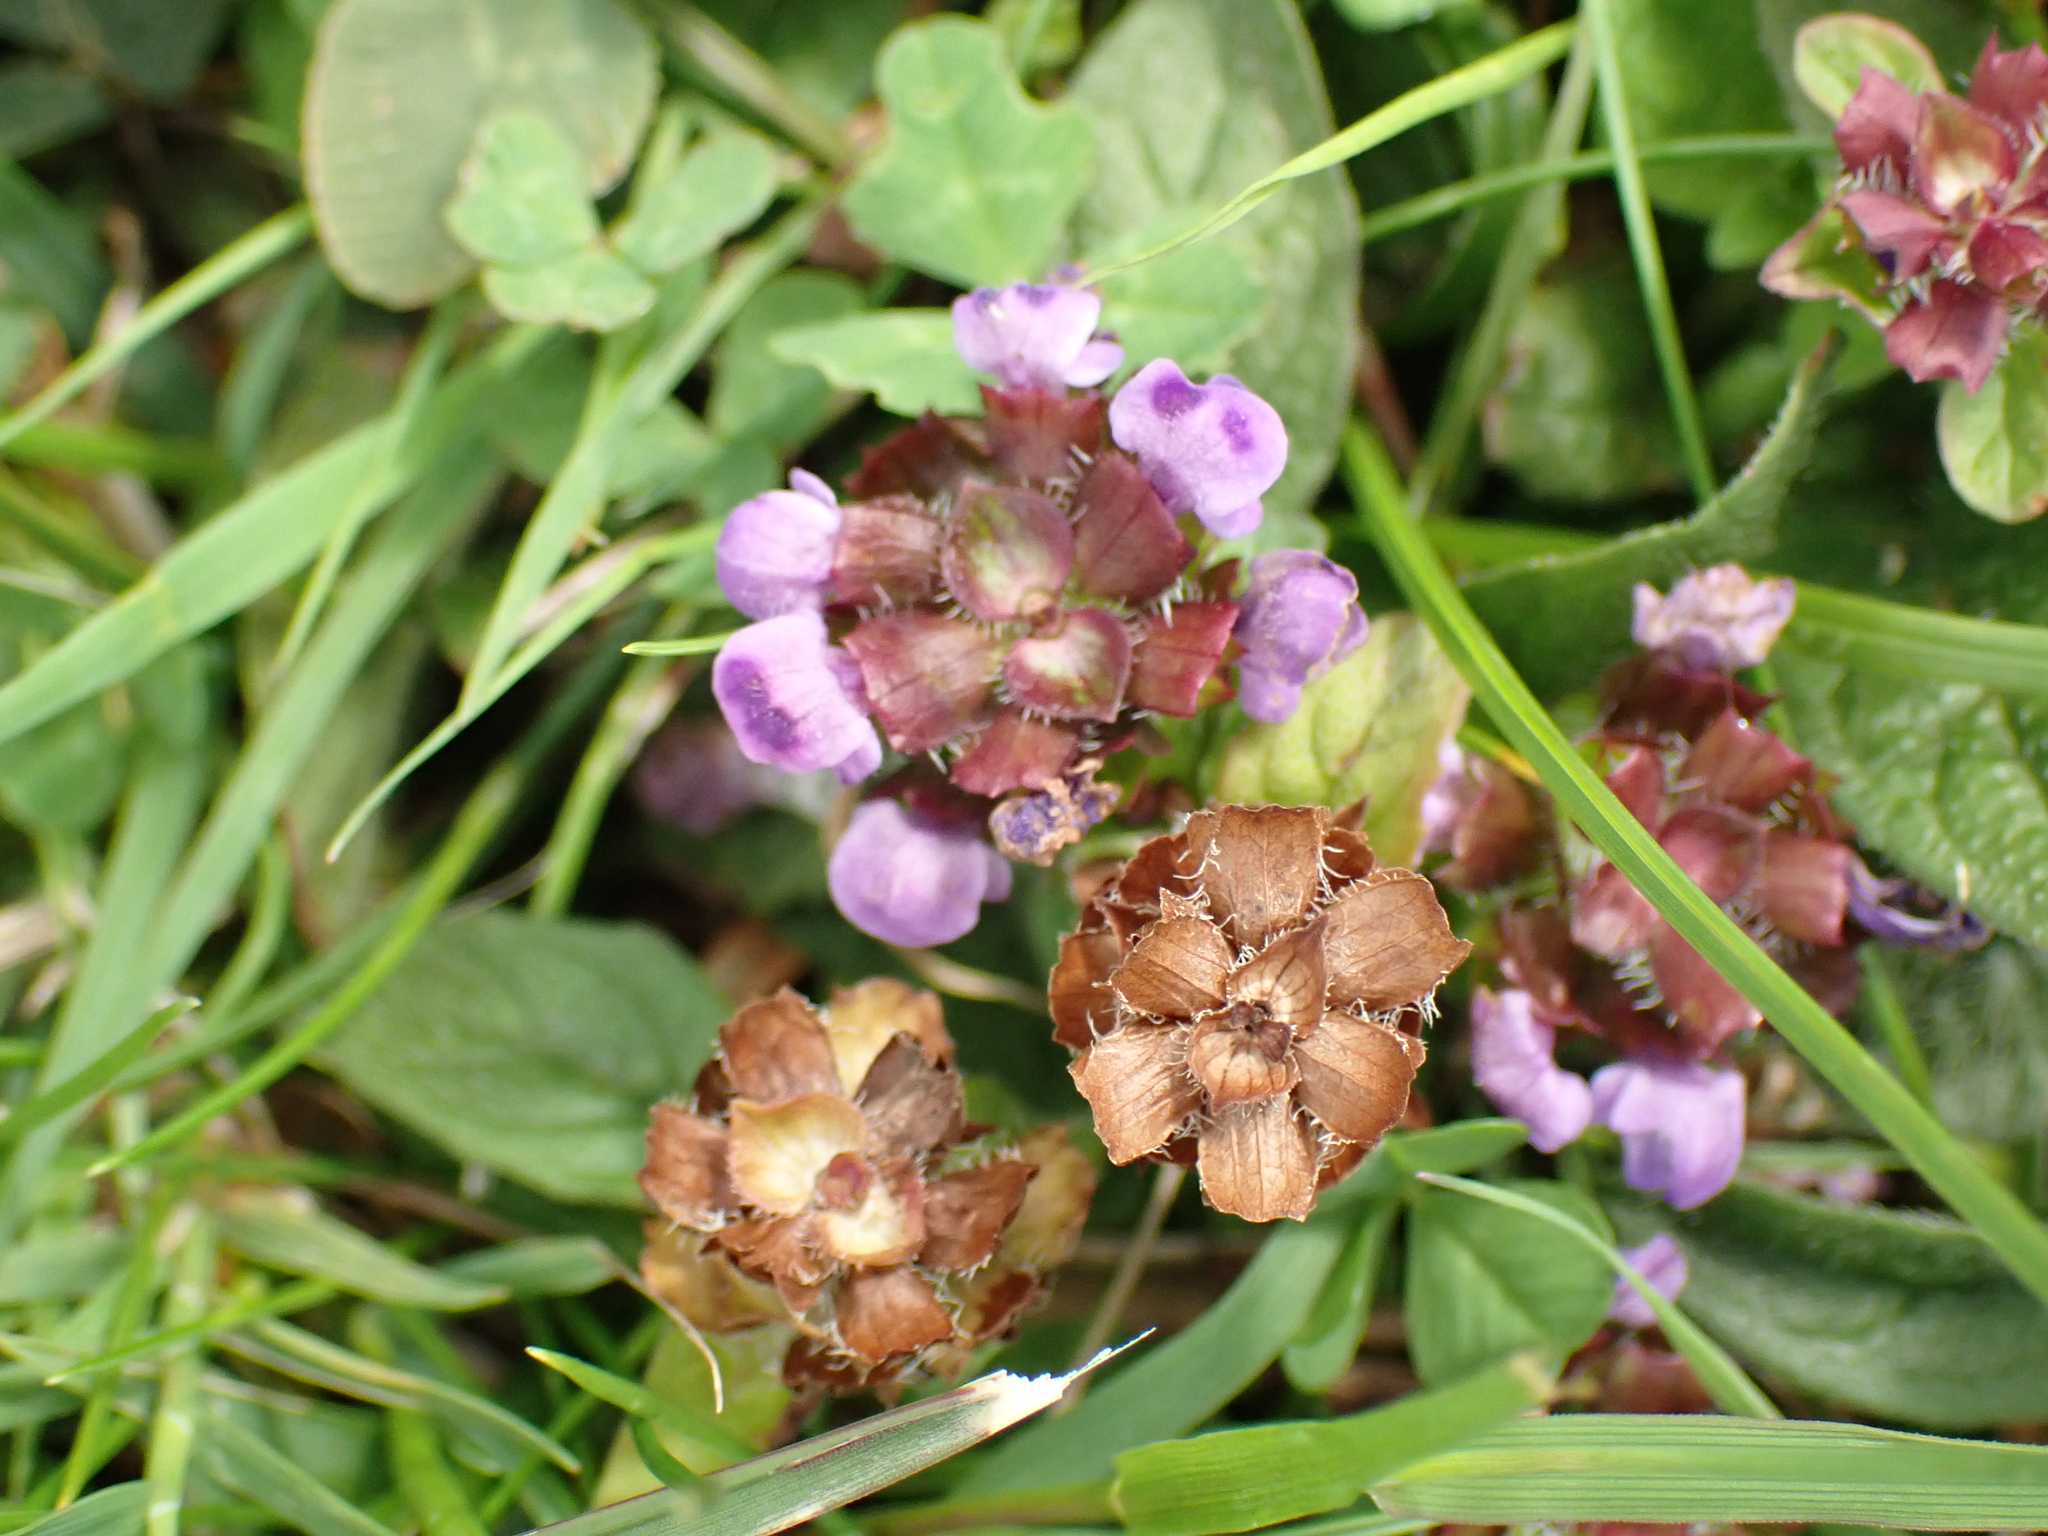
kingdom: Plantae
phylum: Tracheophyta
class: Magnoliopsida
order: Lamiales
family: Lamiaceae
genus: Prunella
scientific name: Prunella vulgaris
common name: Heal-all
